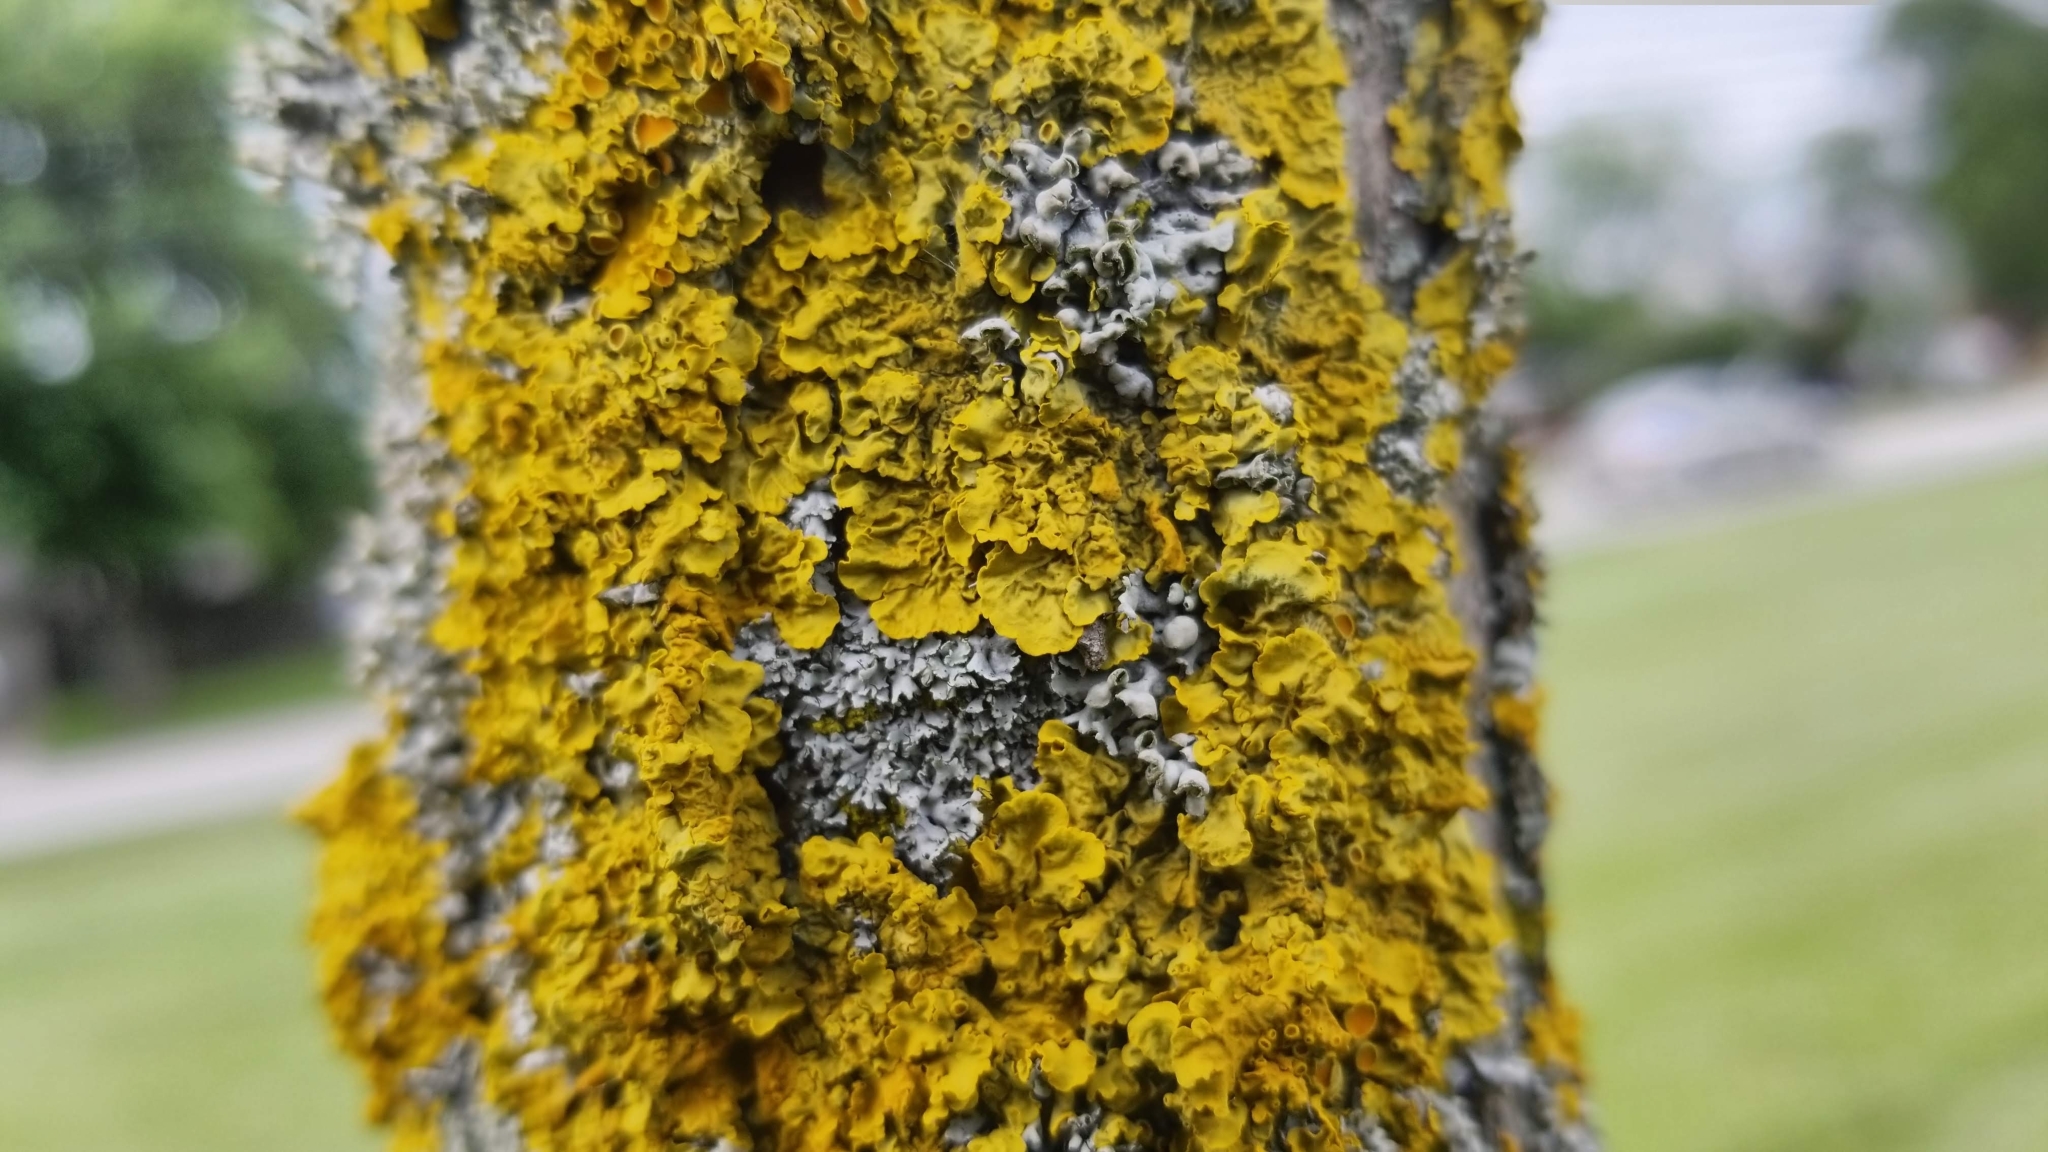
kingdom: Fungi
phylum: Ascomycota
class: Lecanoromycetes
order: Teloschistales
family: Teloschistaceae
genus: Xanthoria
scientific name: Xanthoria parietina
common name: Common orange lichen
